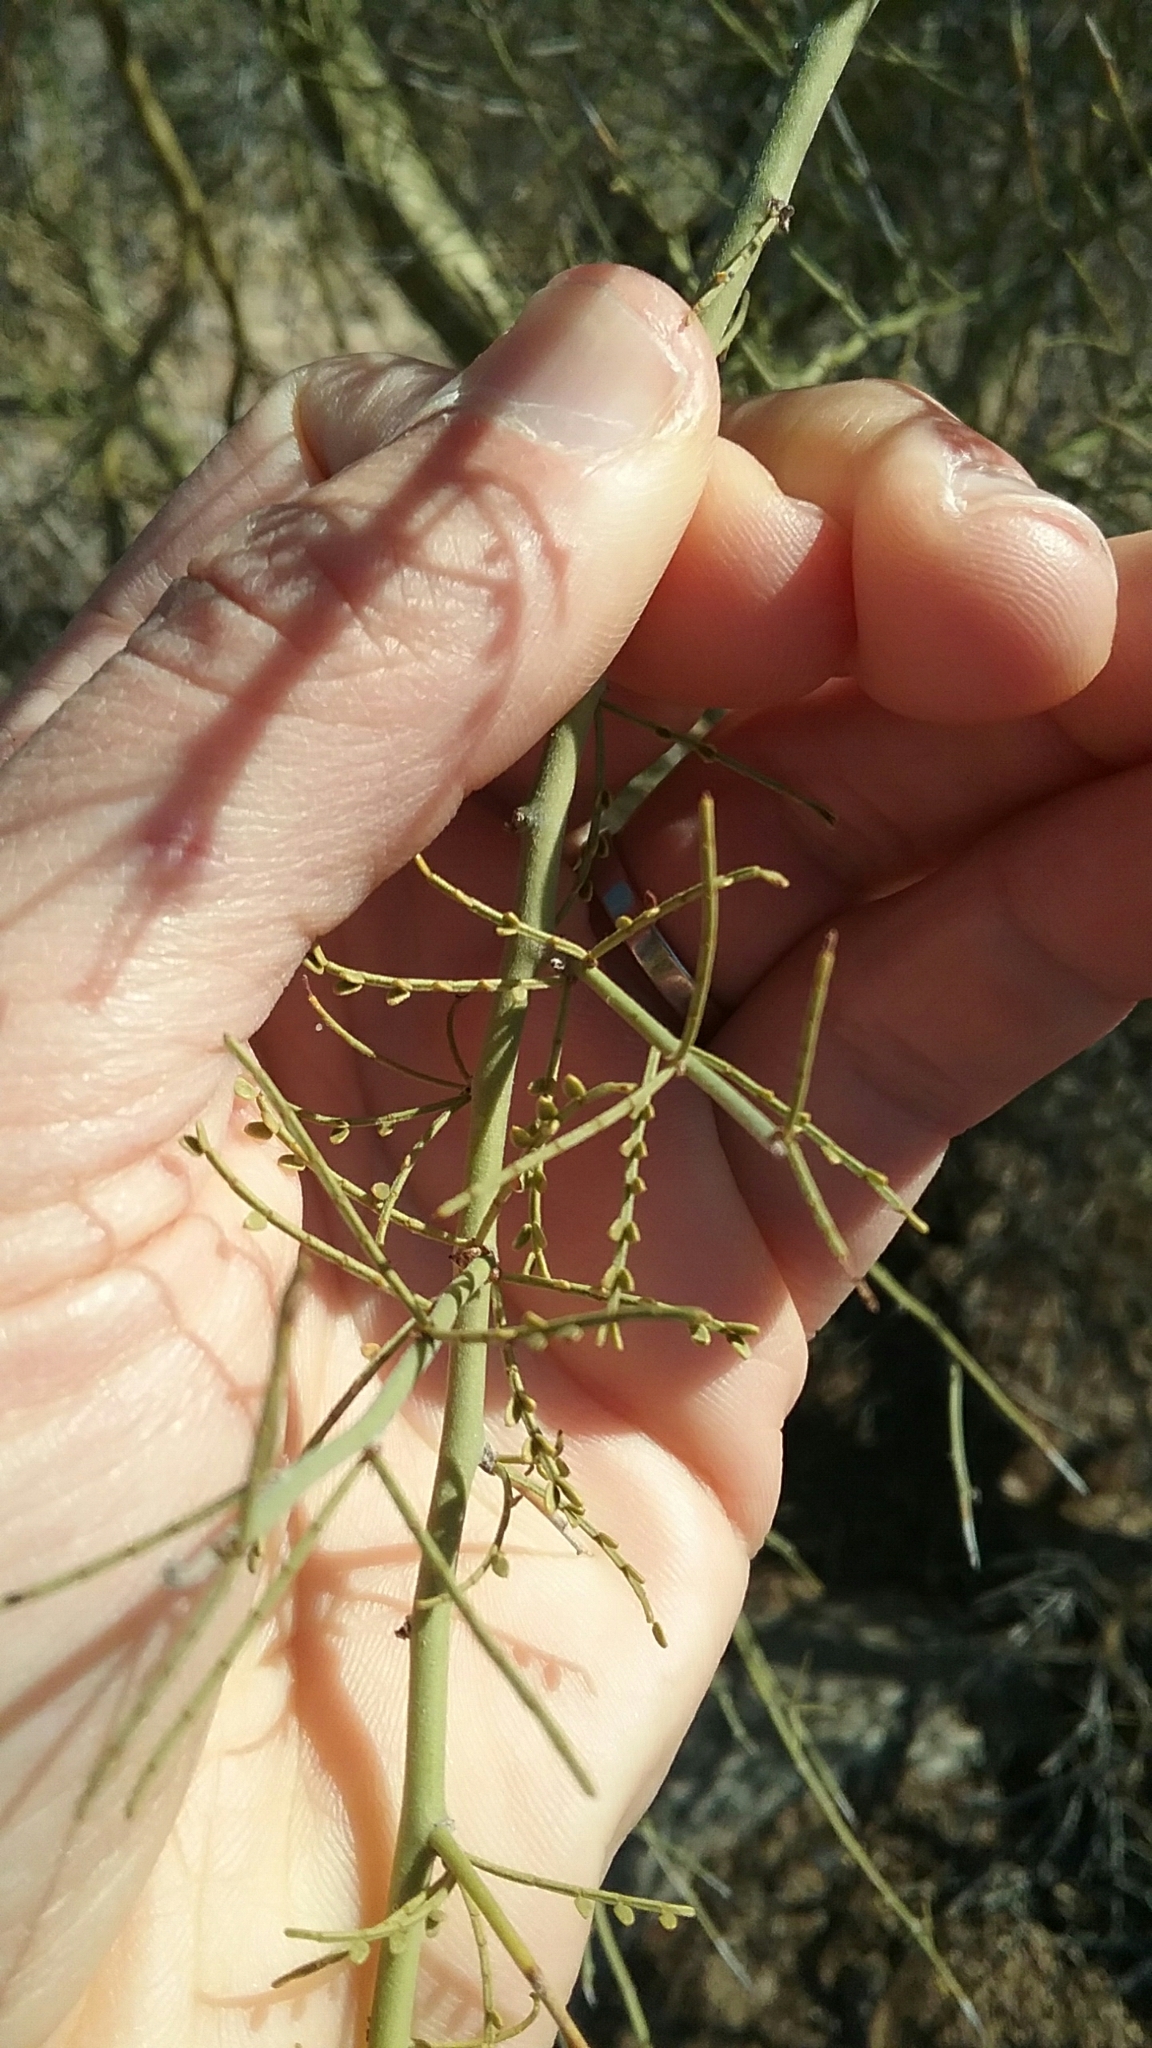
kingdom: Plantae
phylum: Tracheophyta
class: Magnoliopsida
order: Fabales
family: Fabaceae
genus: Parkinsonia
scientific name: Parkinsonia microphylla
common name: Yellow paloverde
